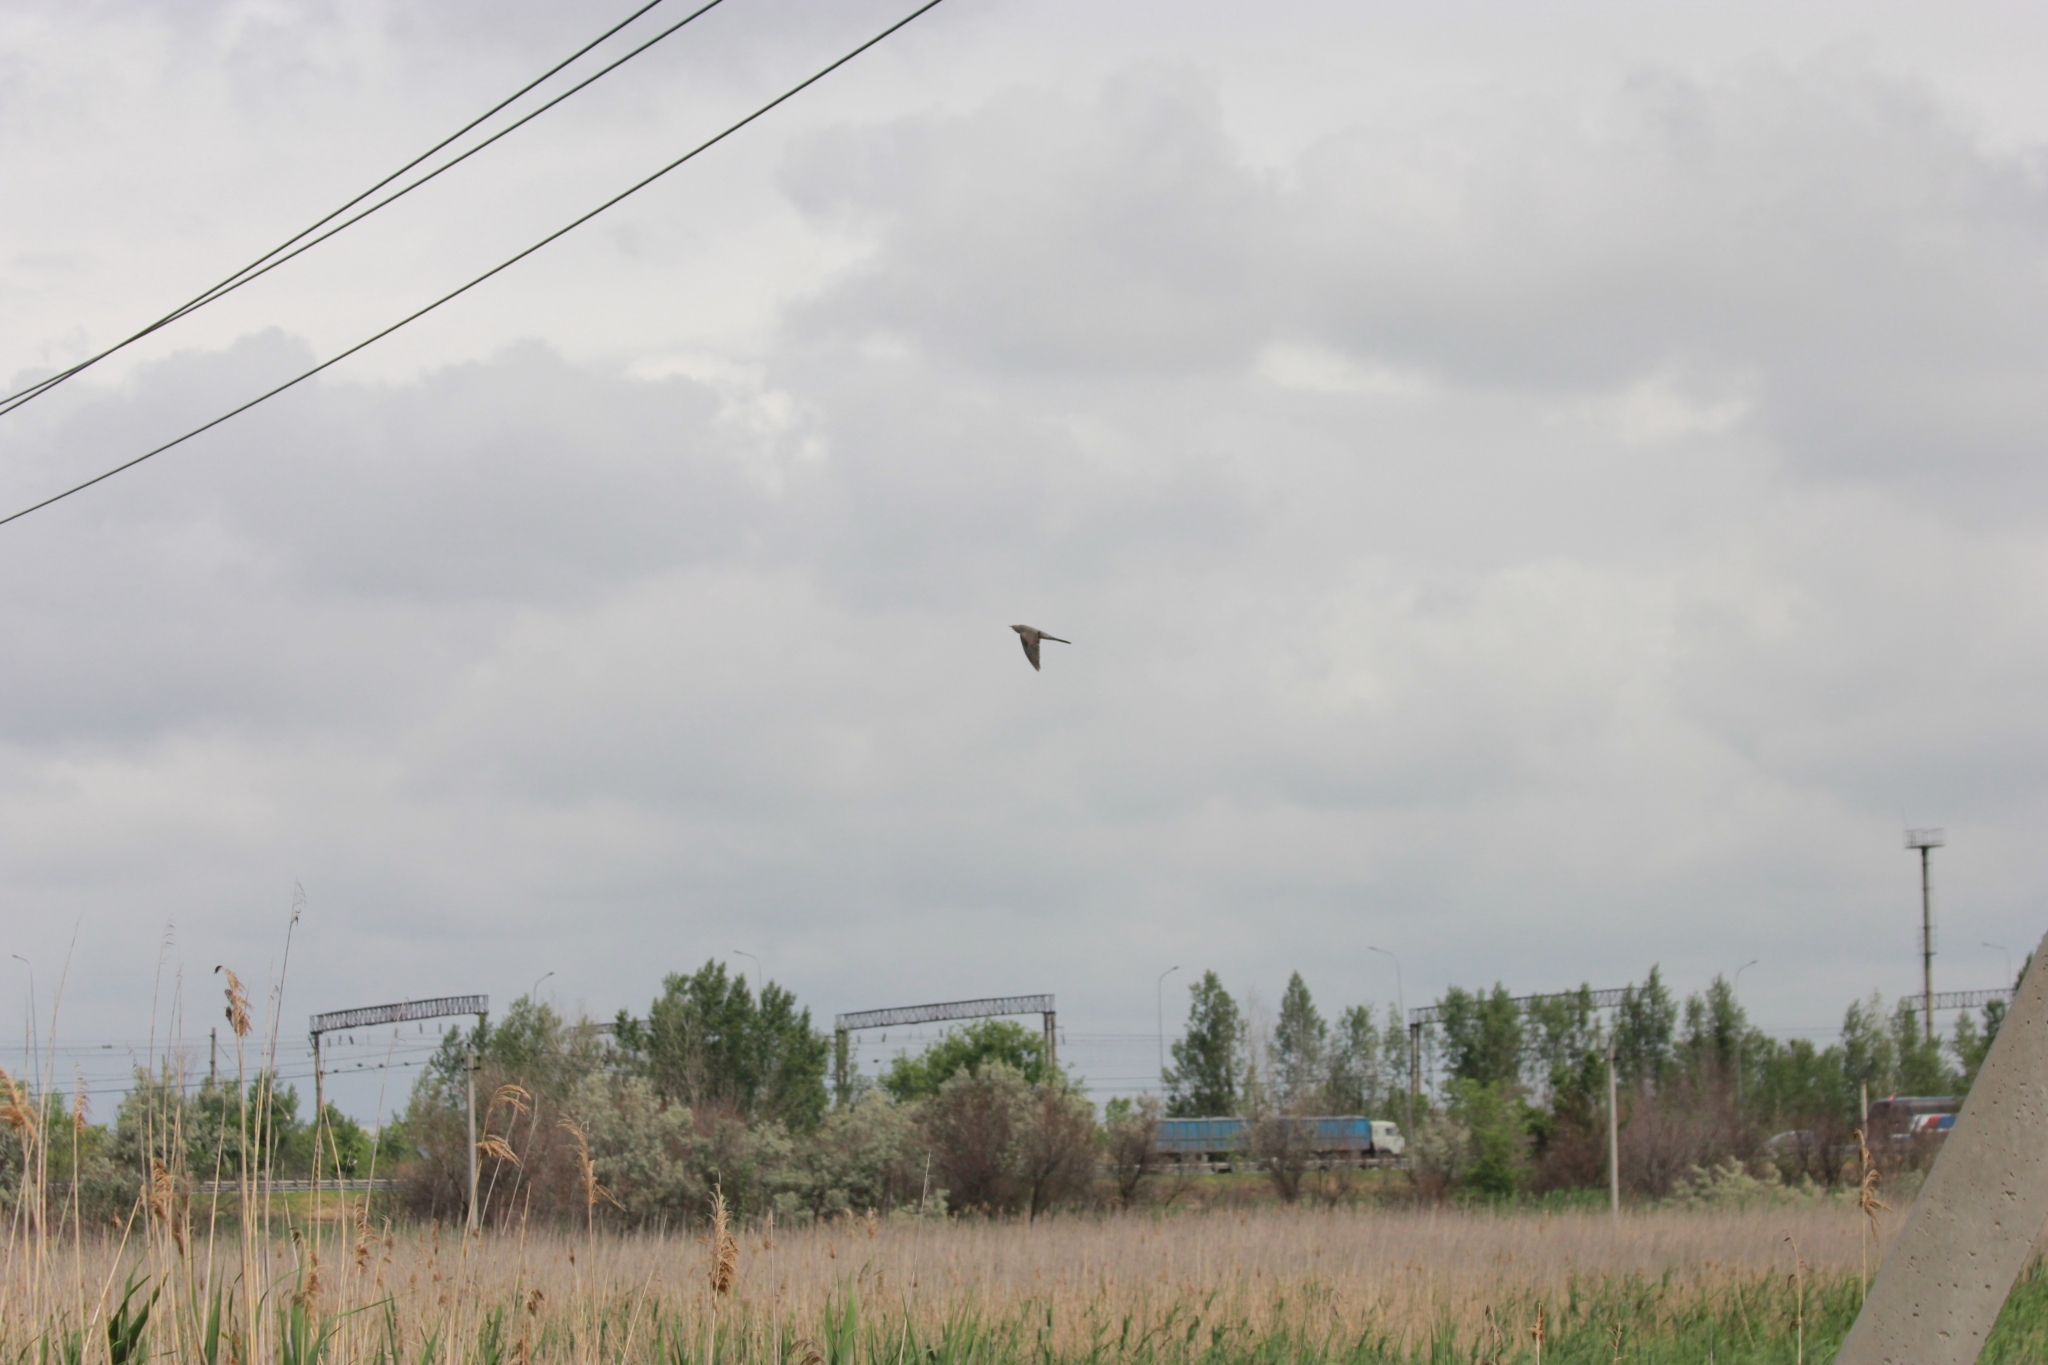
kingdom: Animalia
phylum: Chordata
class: Aves
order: Cuculiformes
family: Cuculidae
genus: Cuculus
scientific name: Cuculus canorus
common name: Common cuckoo
